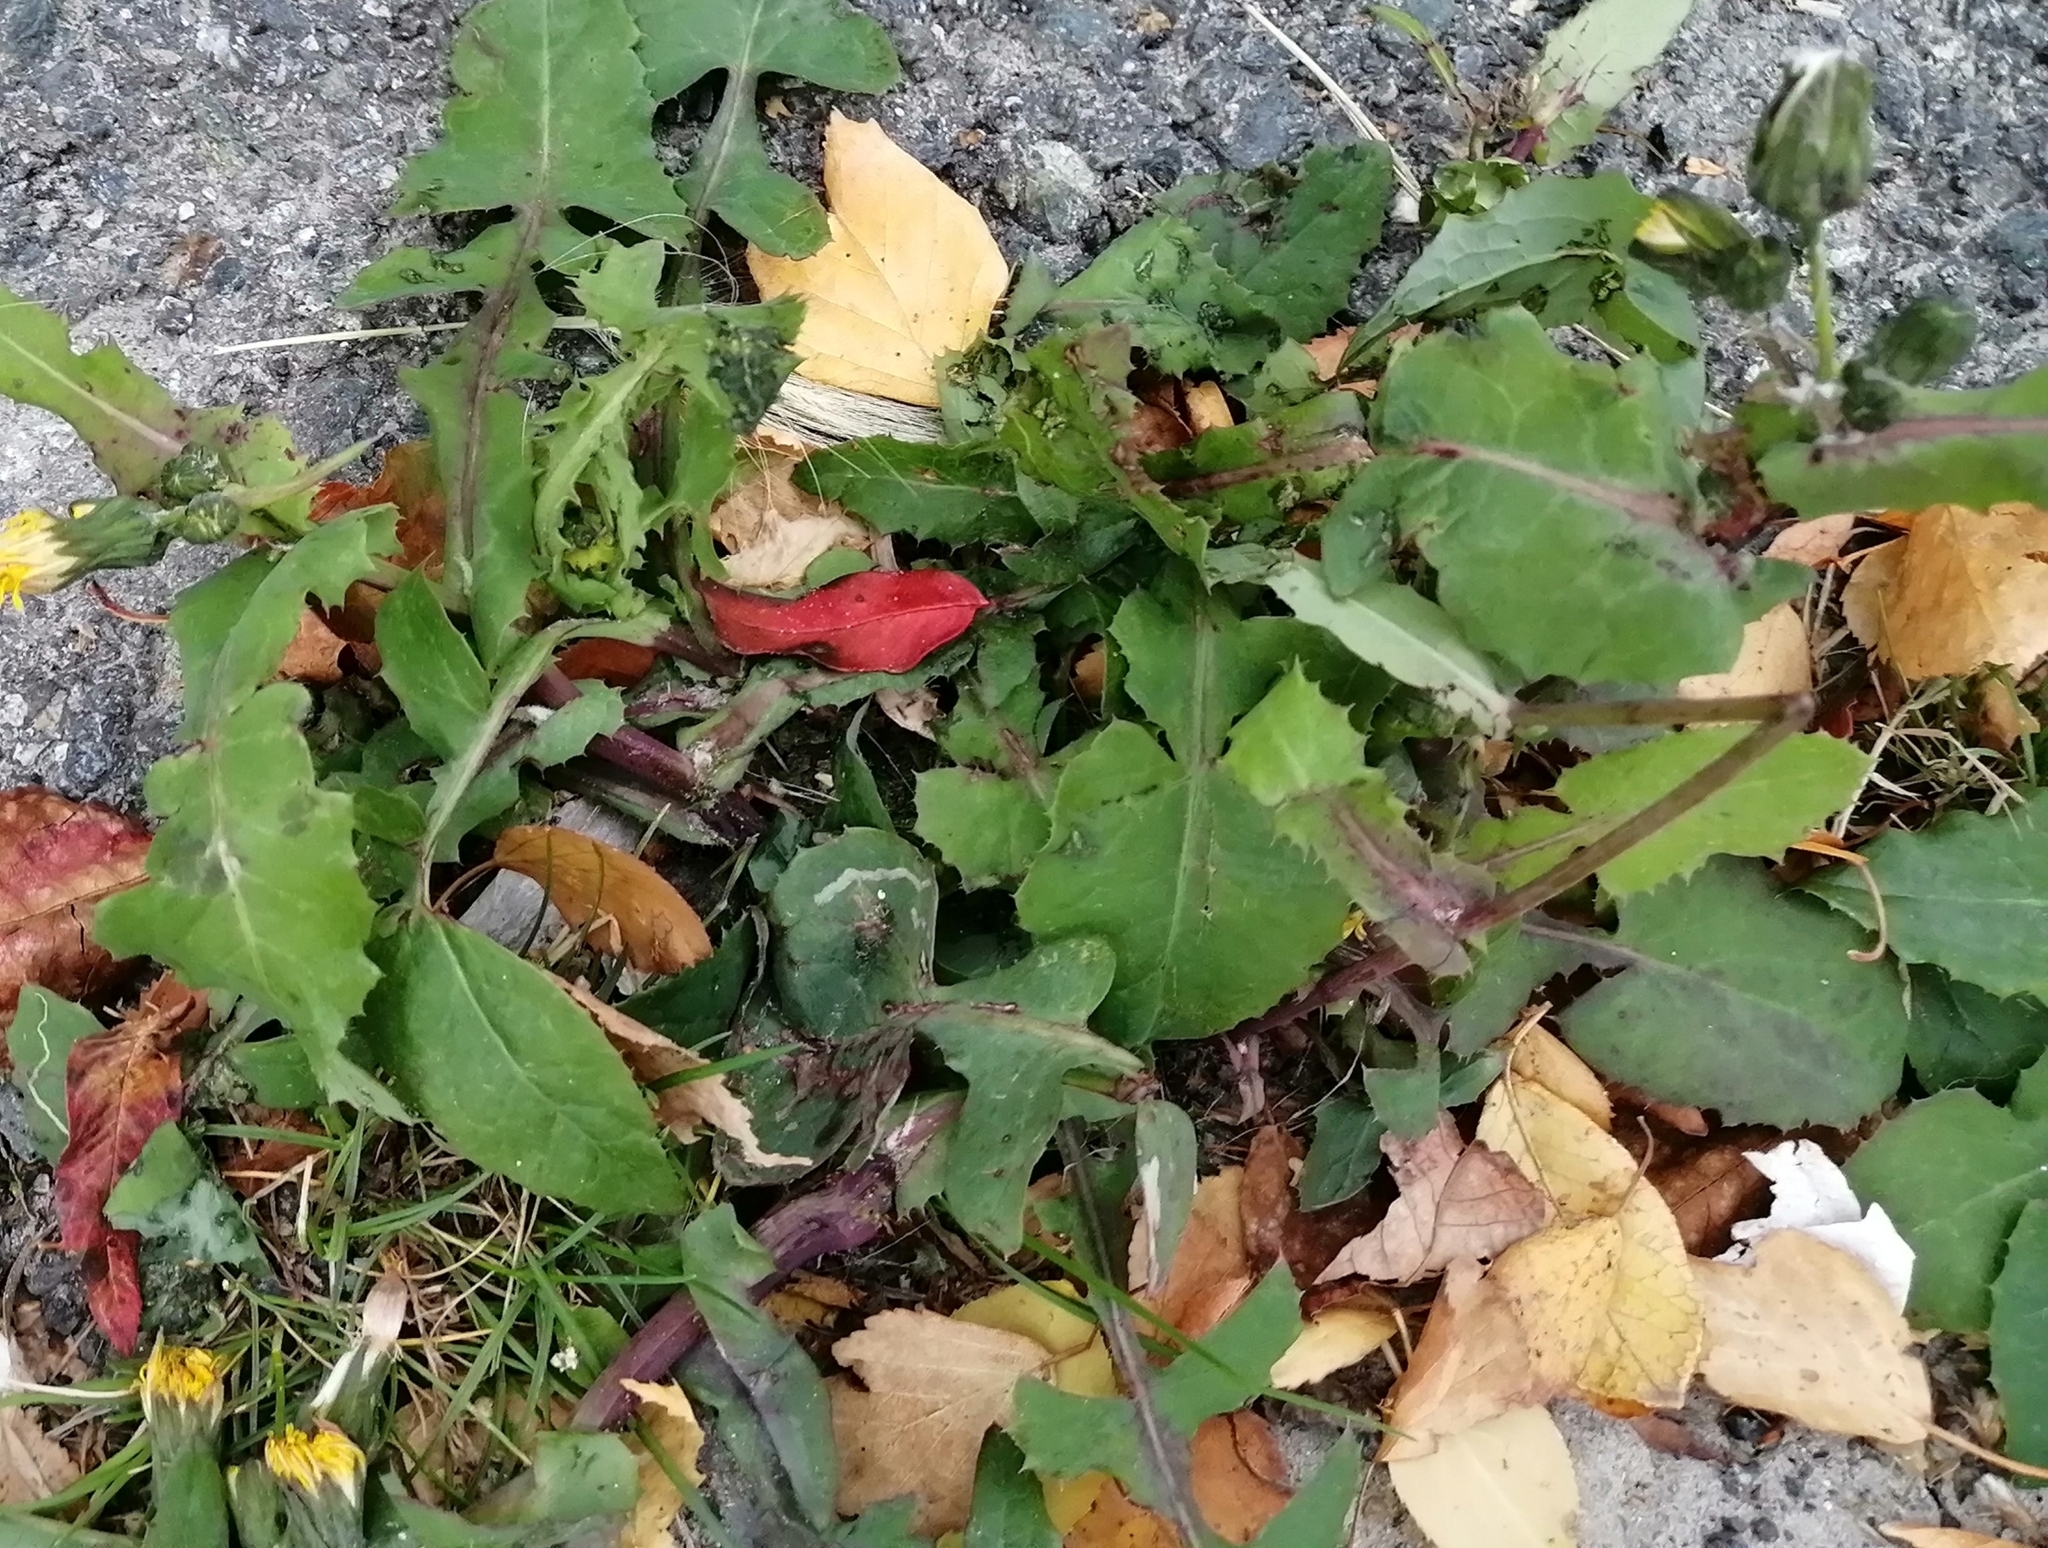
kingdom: Plantae
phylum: Tracheophyta
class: Magnoliopsida
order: Asterales
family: Asteraceae
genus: Sonchus
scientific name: Sonchus oleraceus
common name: Common sowthistle
